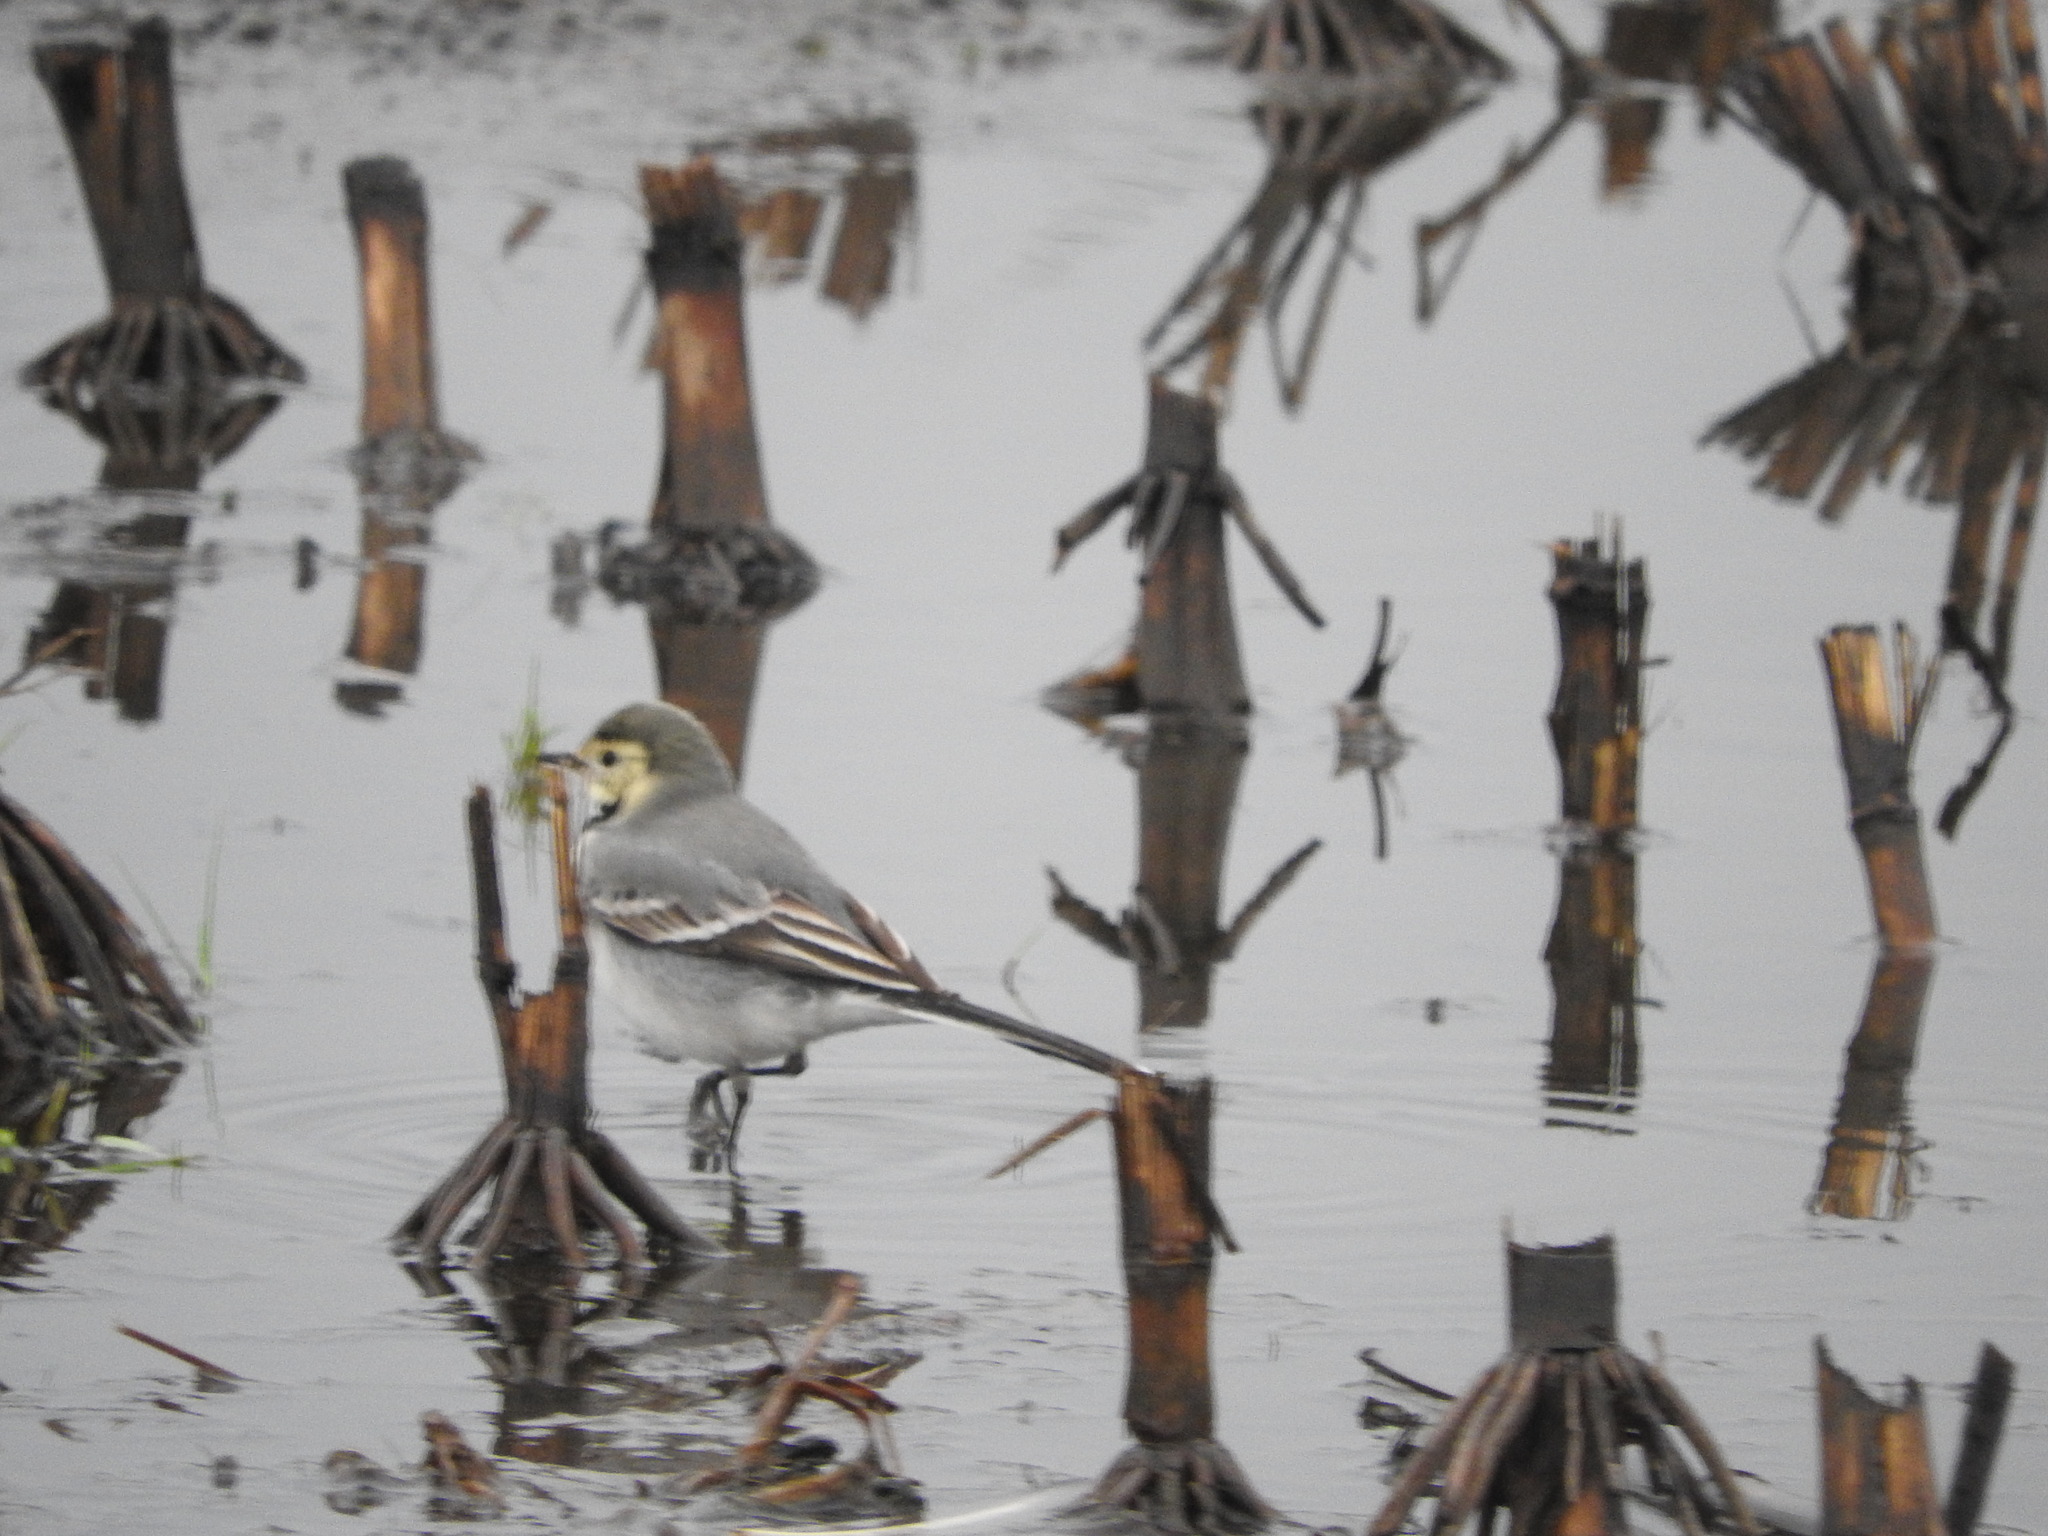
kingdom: Animalia
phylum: Chordata
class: Aves
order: Passeriformes
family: Motacillidae
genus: Motacilla
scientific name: Motacilla alba
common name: White wagtail
